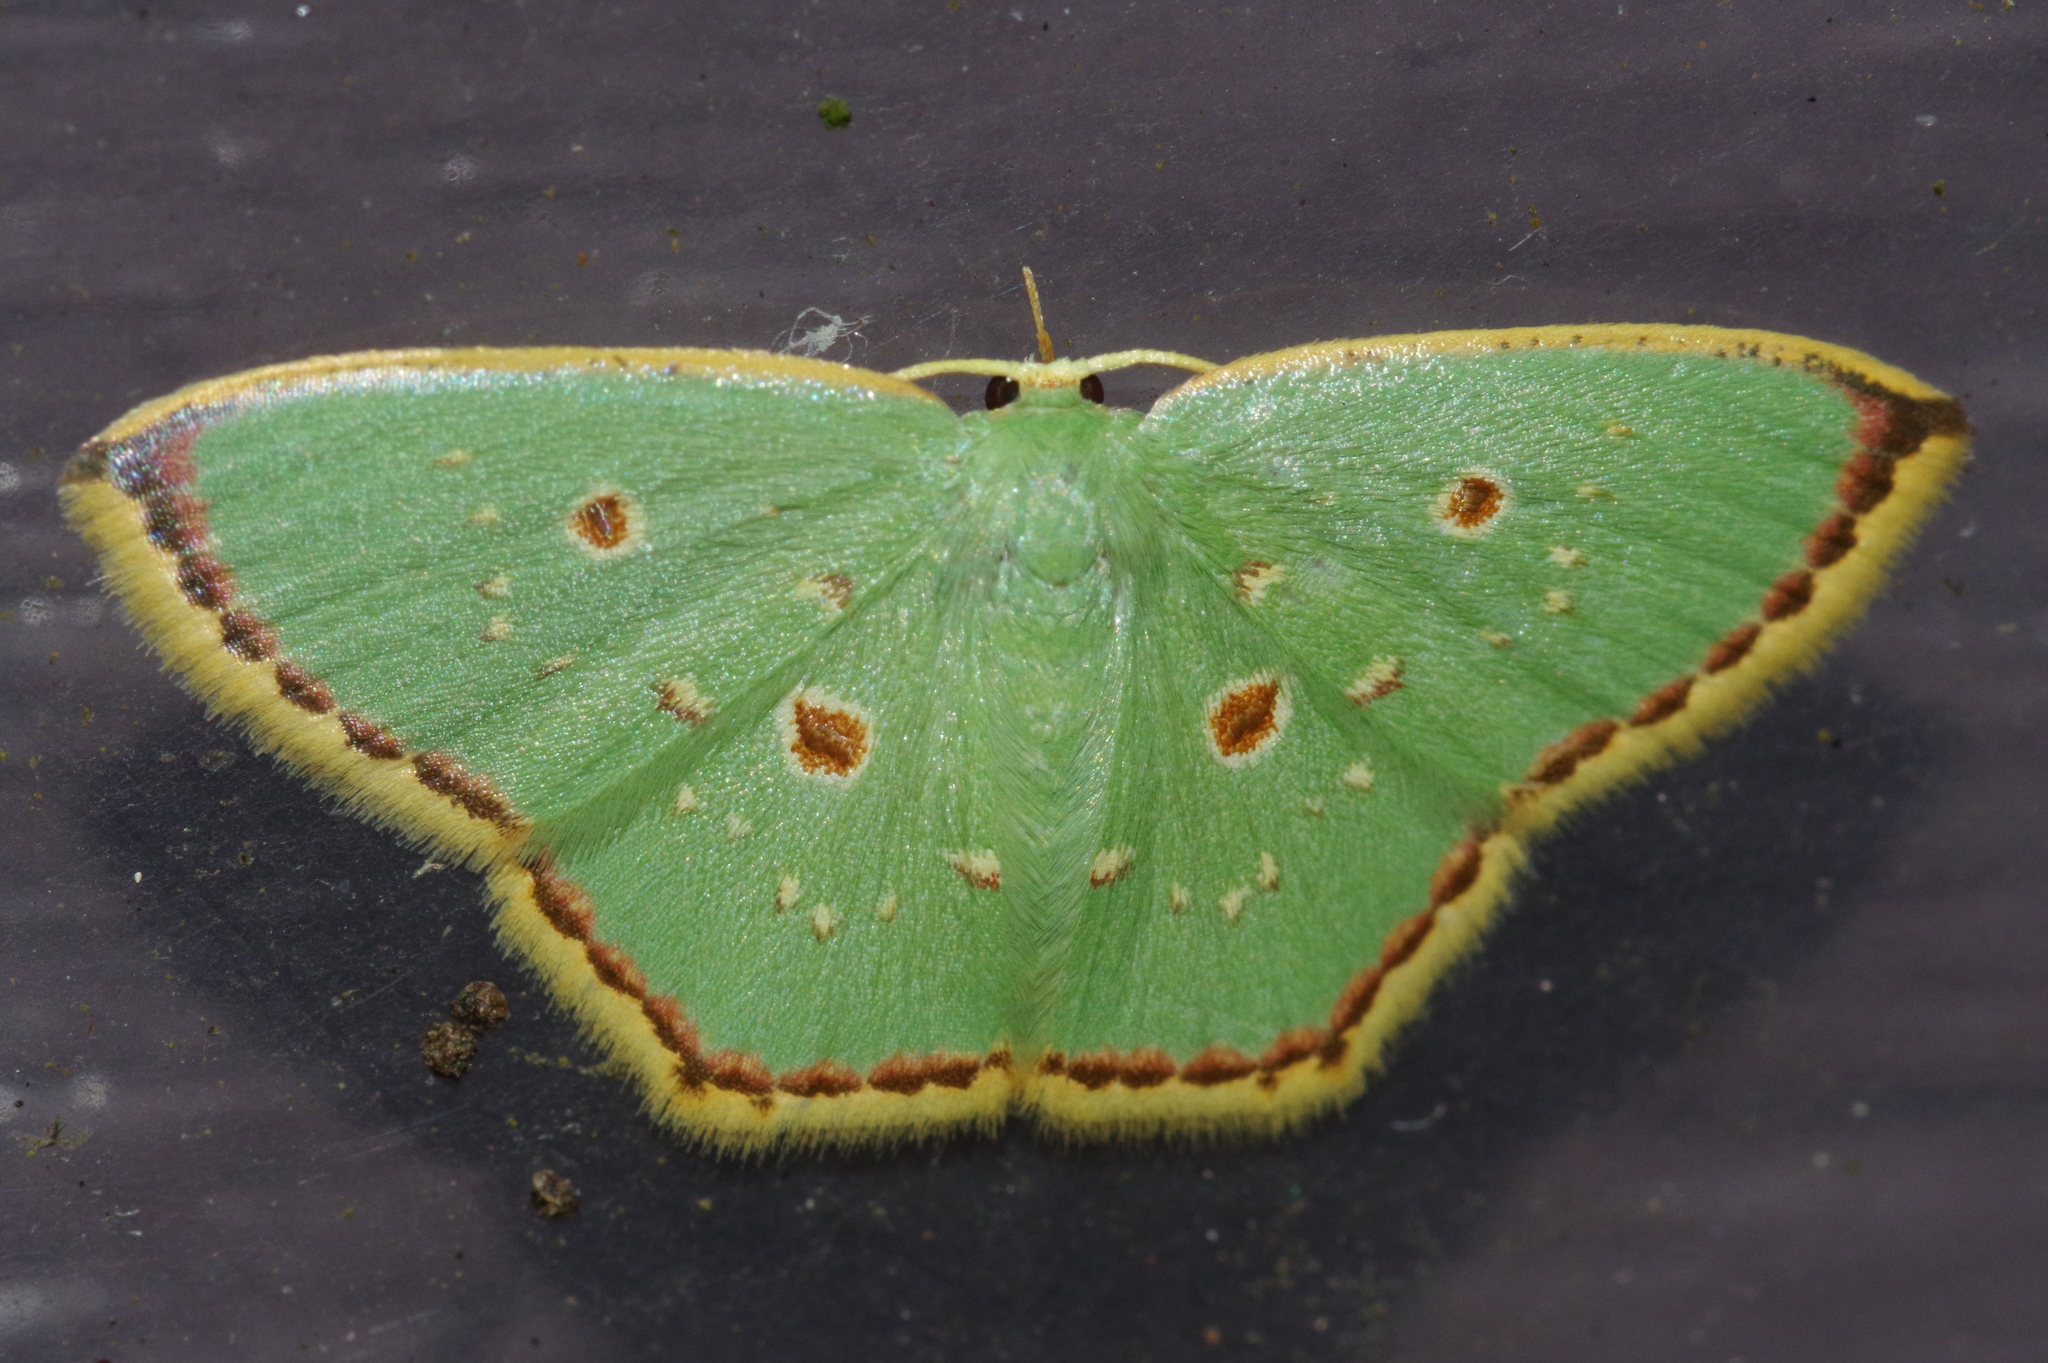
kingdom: Animalia
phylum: Arthropoda
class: Insecta
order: Lepidoptera
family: Geometridae
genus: Comostola
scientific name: Comostola subtiliaria
